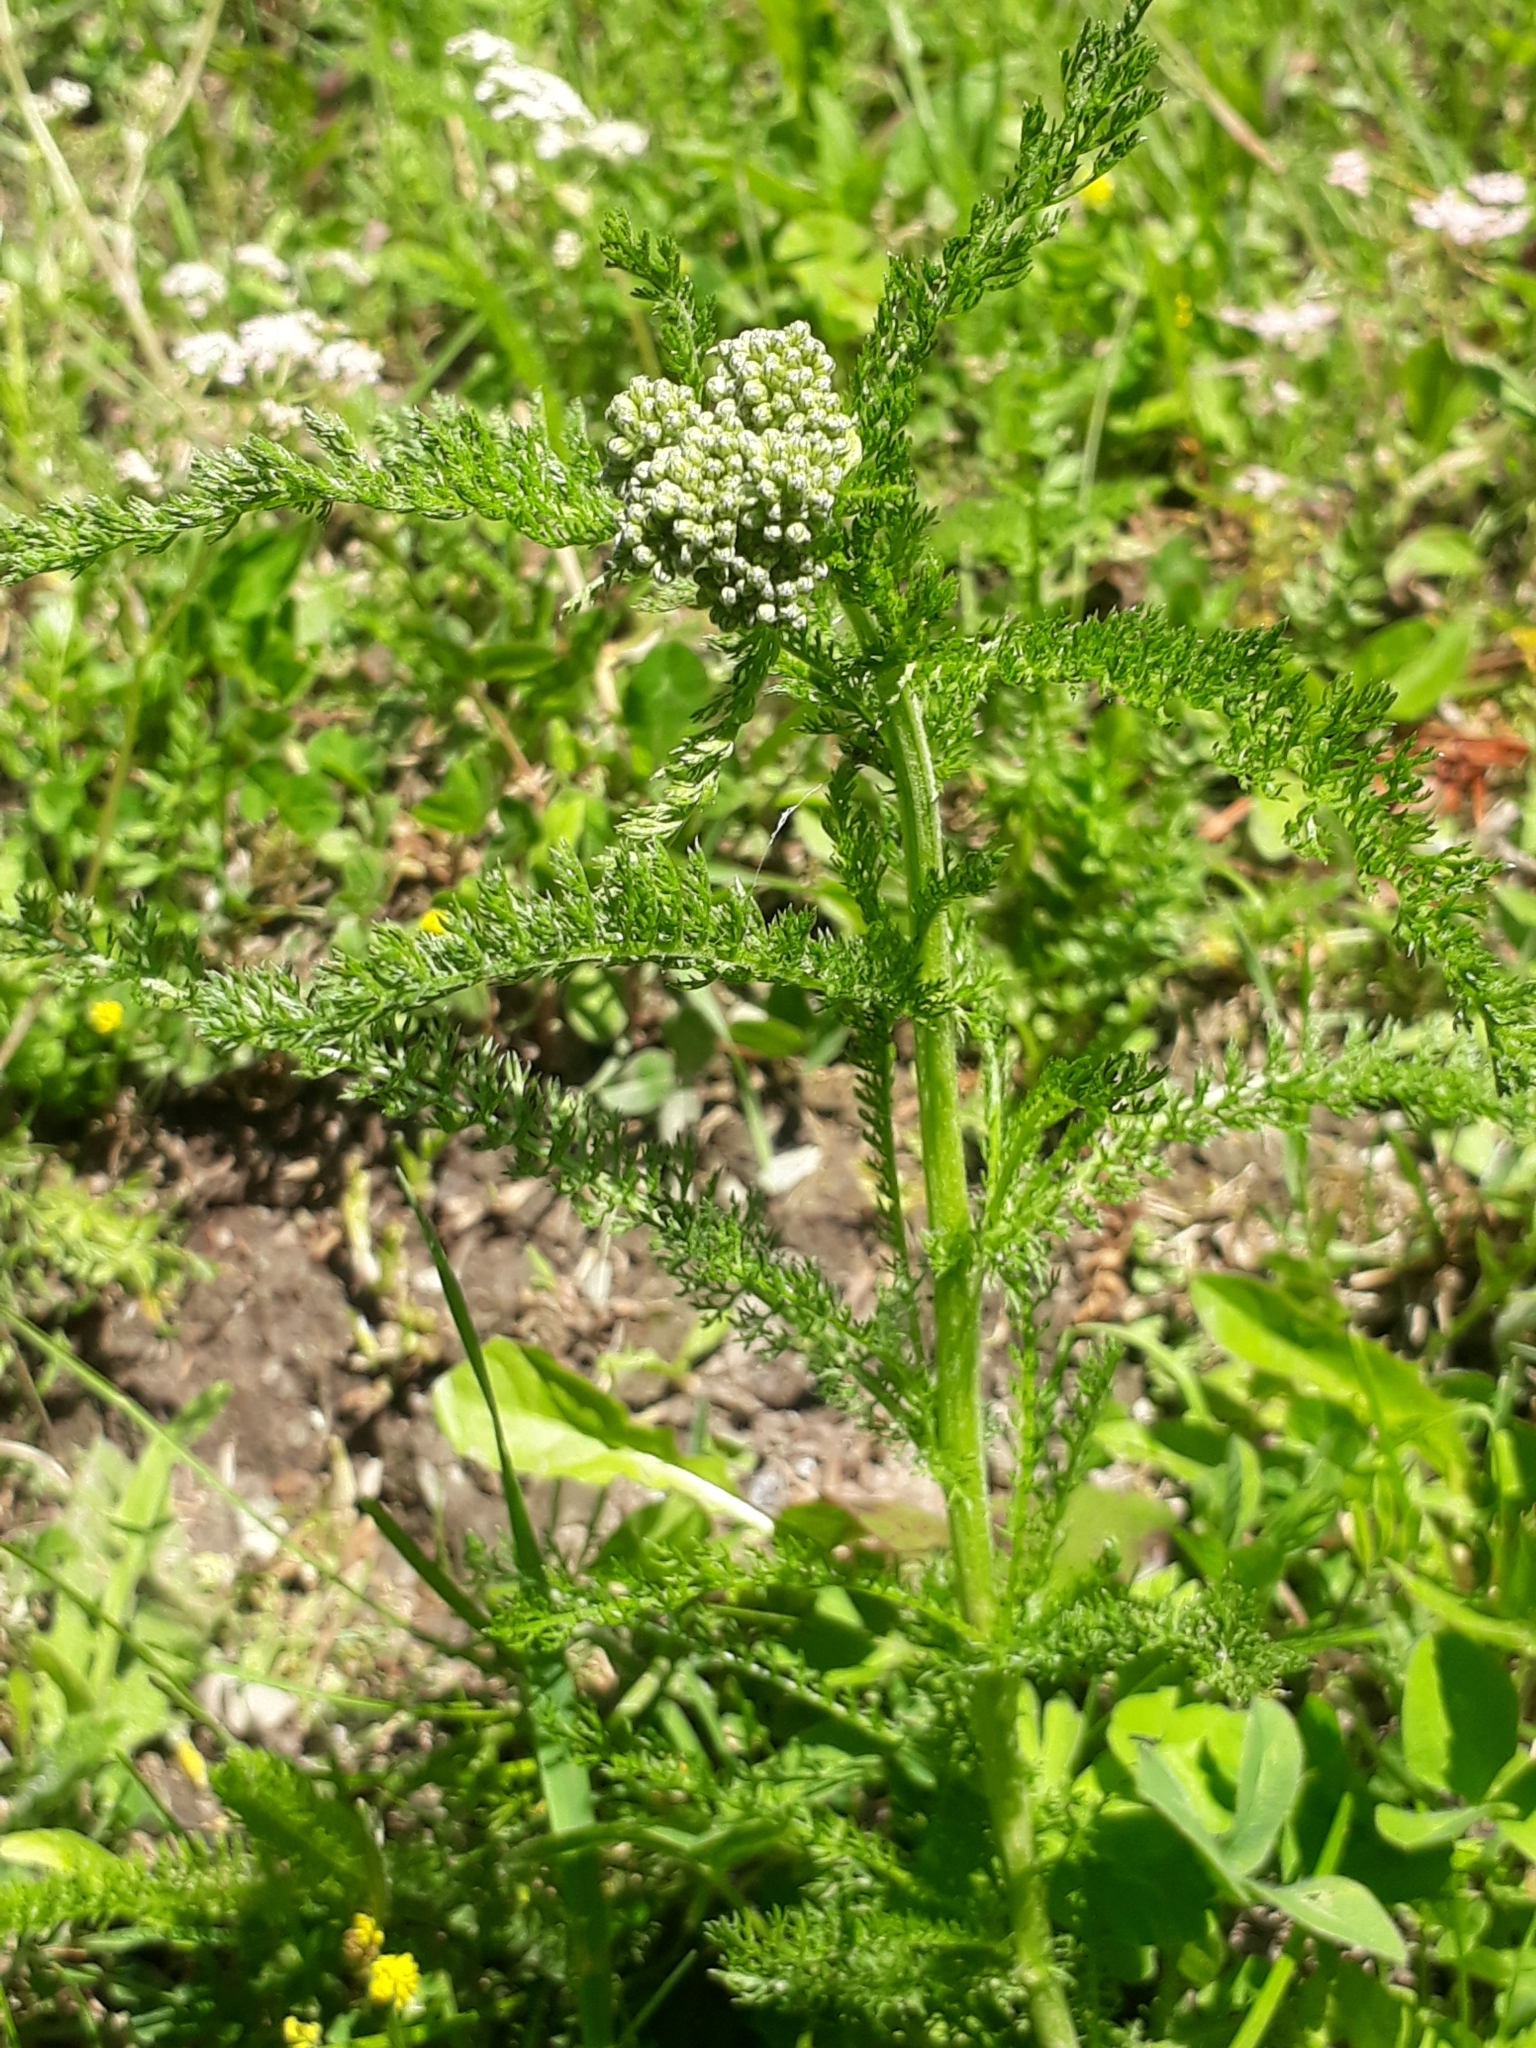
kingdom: Plantae
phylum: Tracheophyta
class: Magnoliopsida
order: Asterales
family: Asteraceae
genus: Achillea
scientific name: Achillea millefolium
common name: Yarrow
